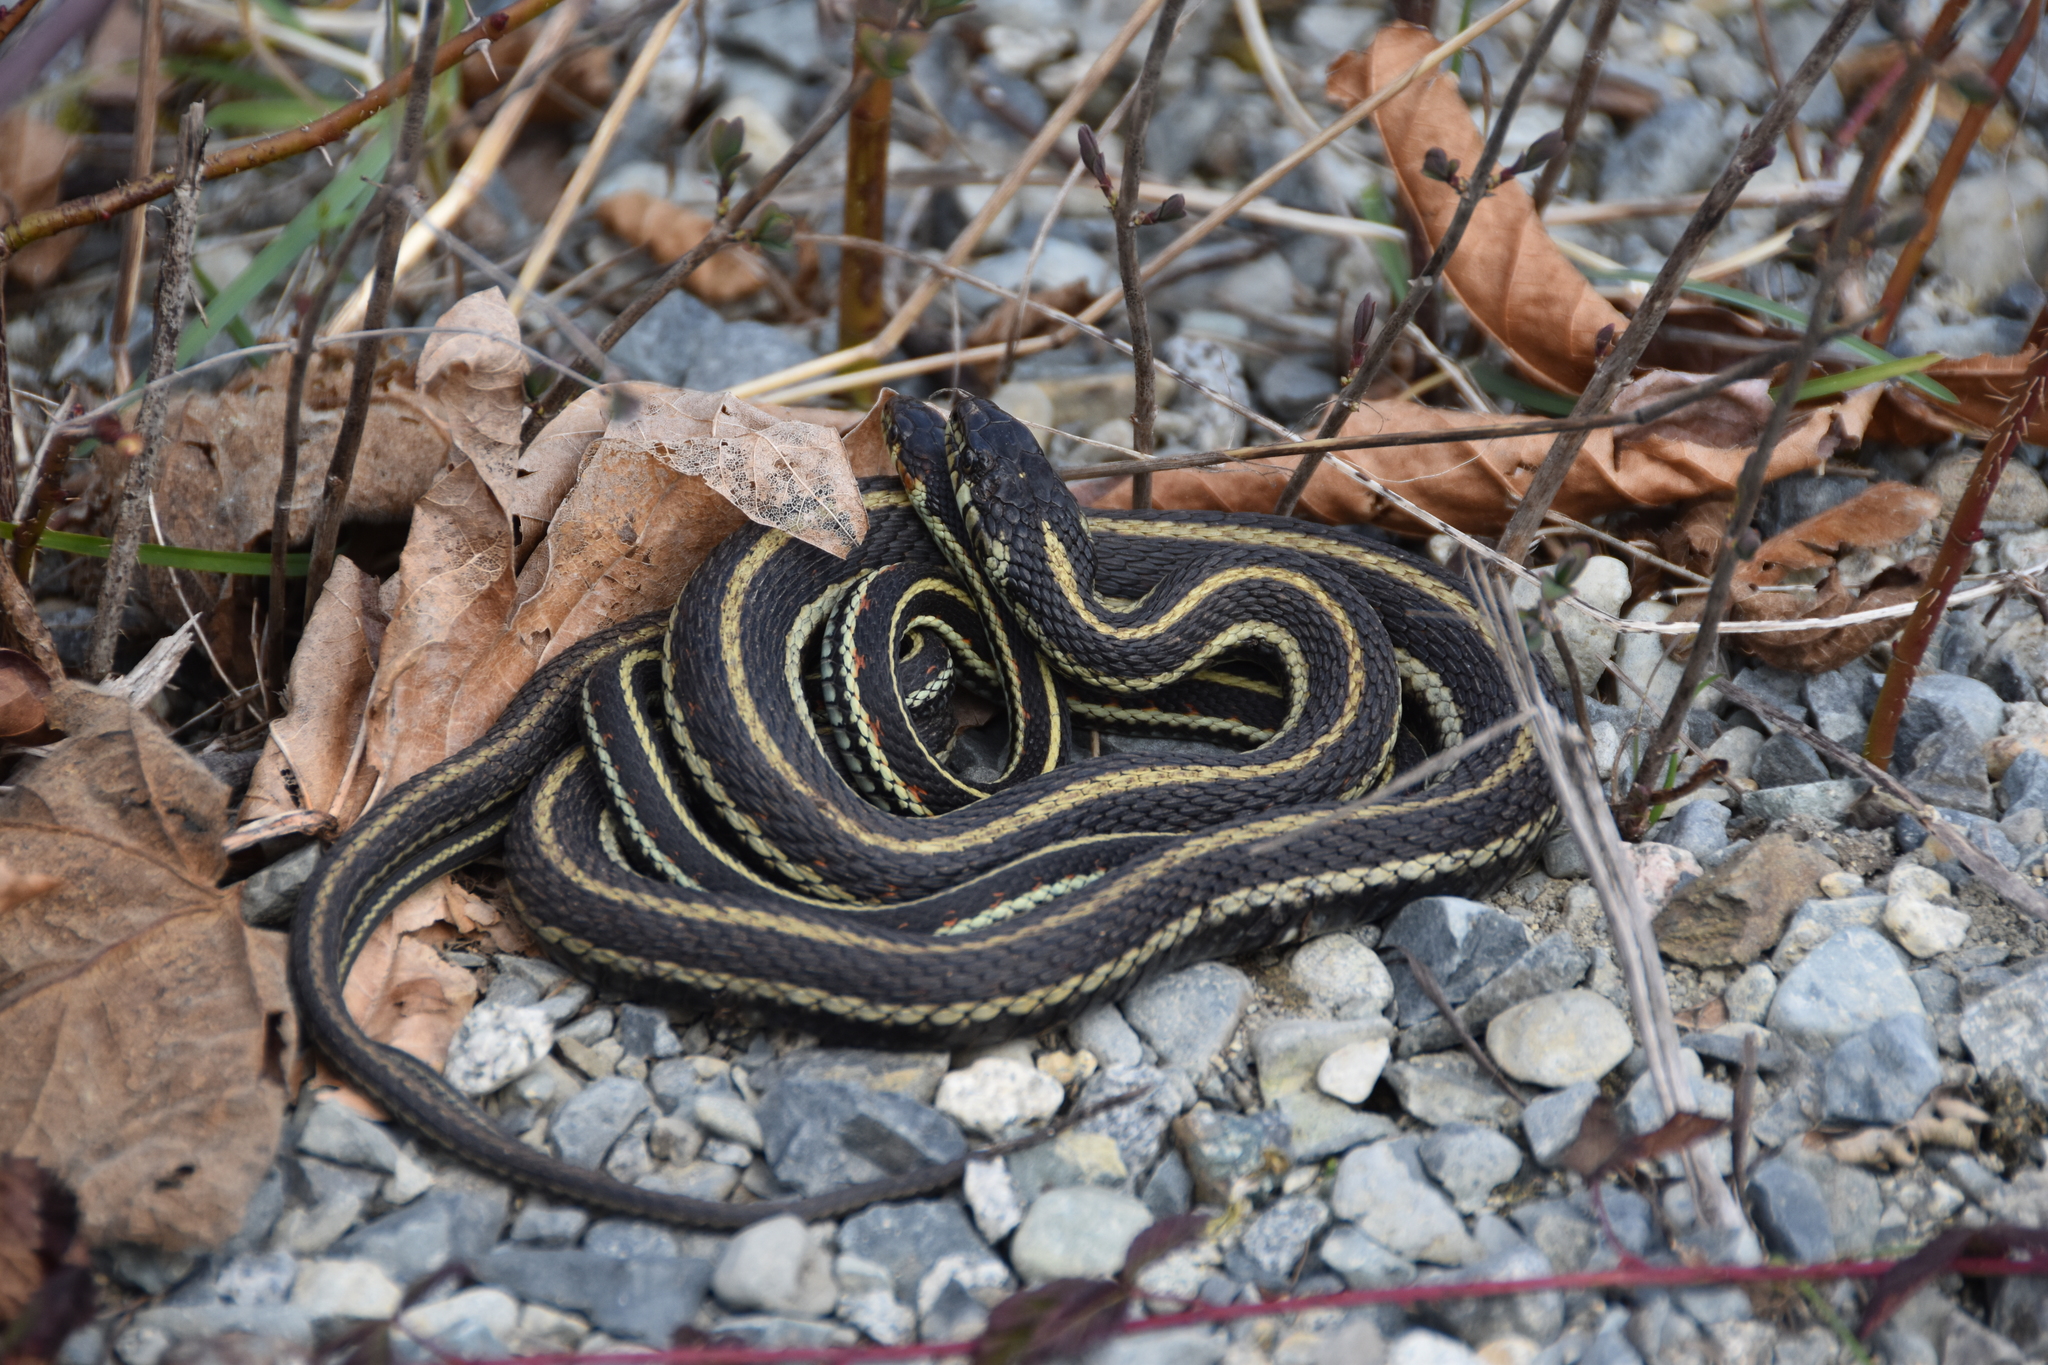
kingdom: Animalia
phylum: Chordata
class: Squamata
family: Colubridae
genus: Thamnophis
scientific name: Thamnophis sirtalis
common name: Common garter snake
